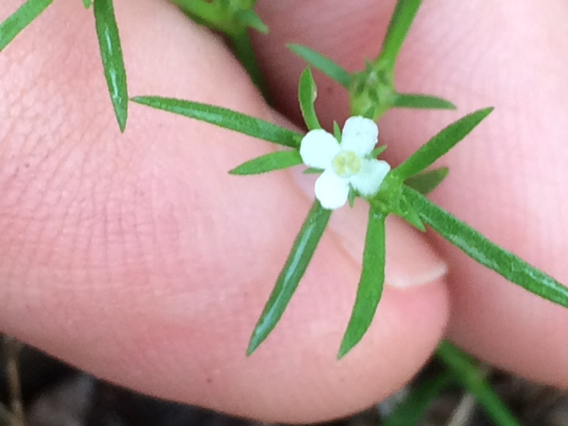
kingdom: Plantae
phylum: Tracheophyta
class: Magnoliopsida
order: Lamiales
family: Tetrachondraceae
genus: Polypremum
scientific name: Polypremum procumbens
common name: Juniper-leaf
